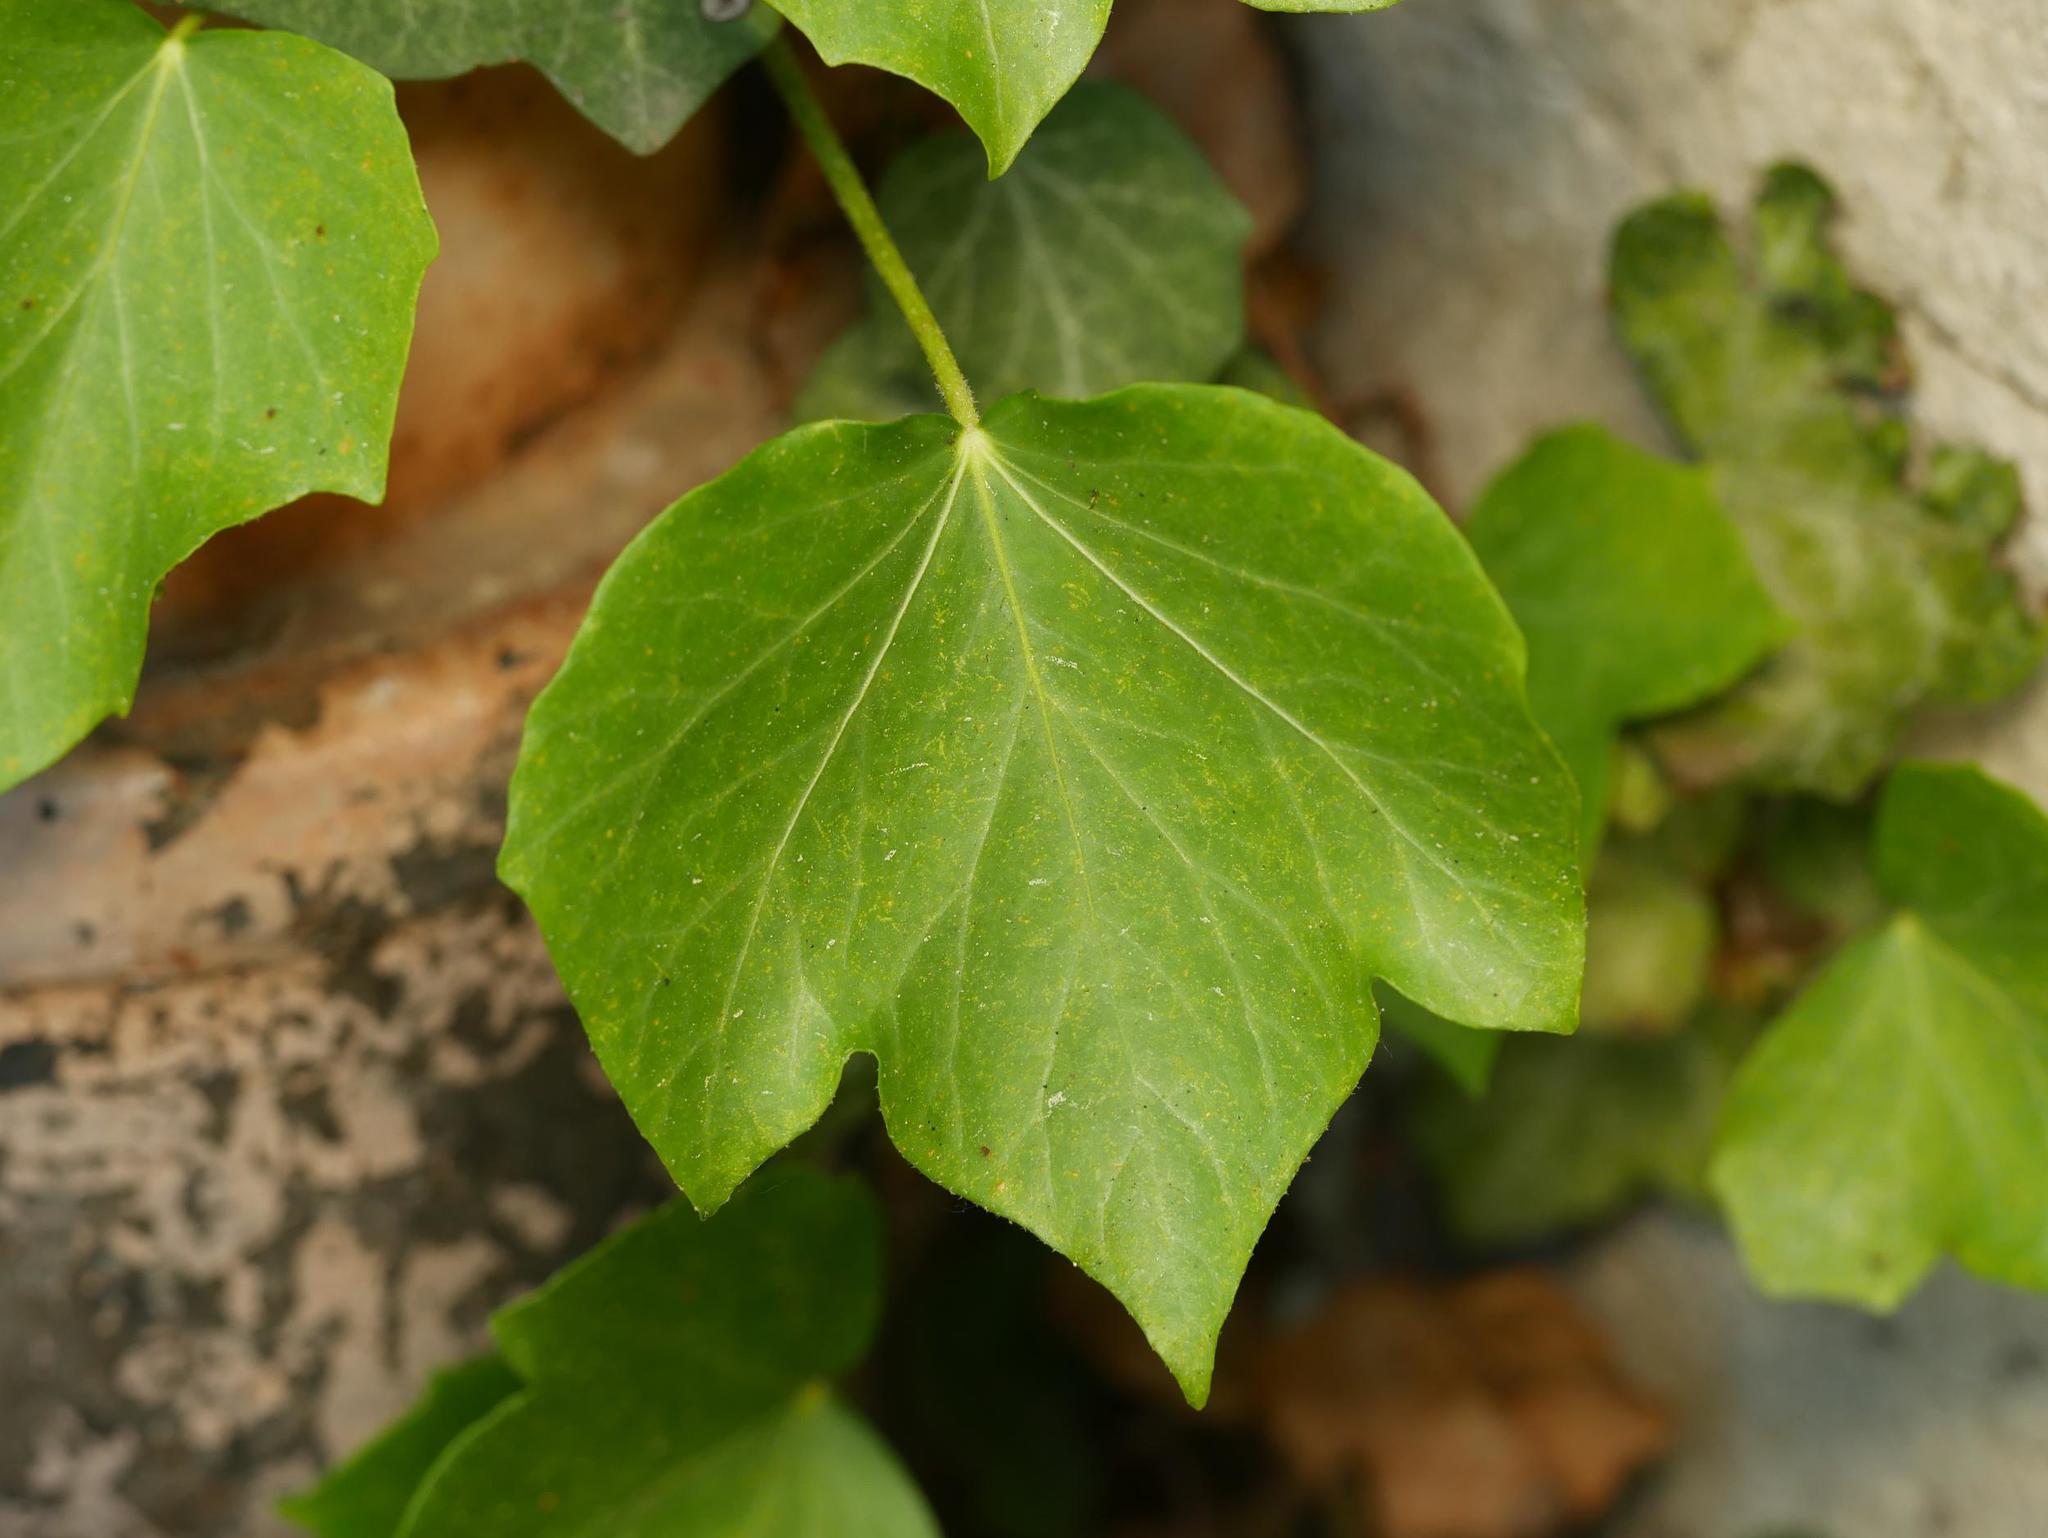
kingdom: Plantae
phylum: Tracheophyta
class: Magnoliopsida
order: Apiales
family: Araliaceae
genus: Hedera
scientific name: Hedera helix
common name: Ivy
